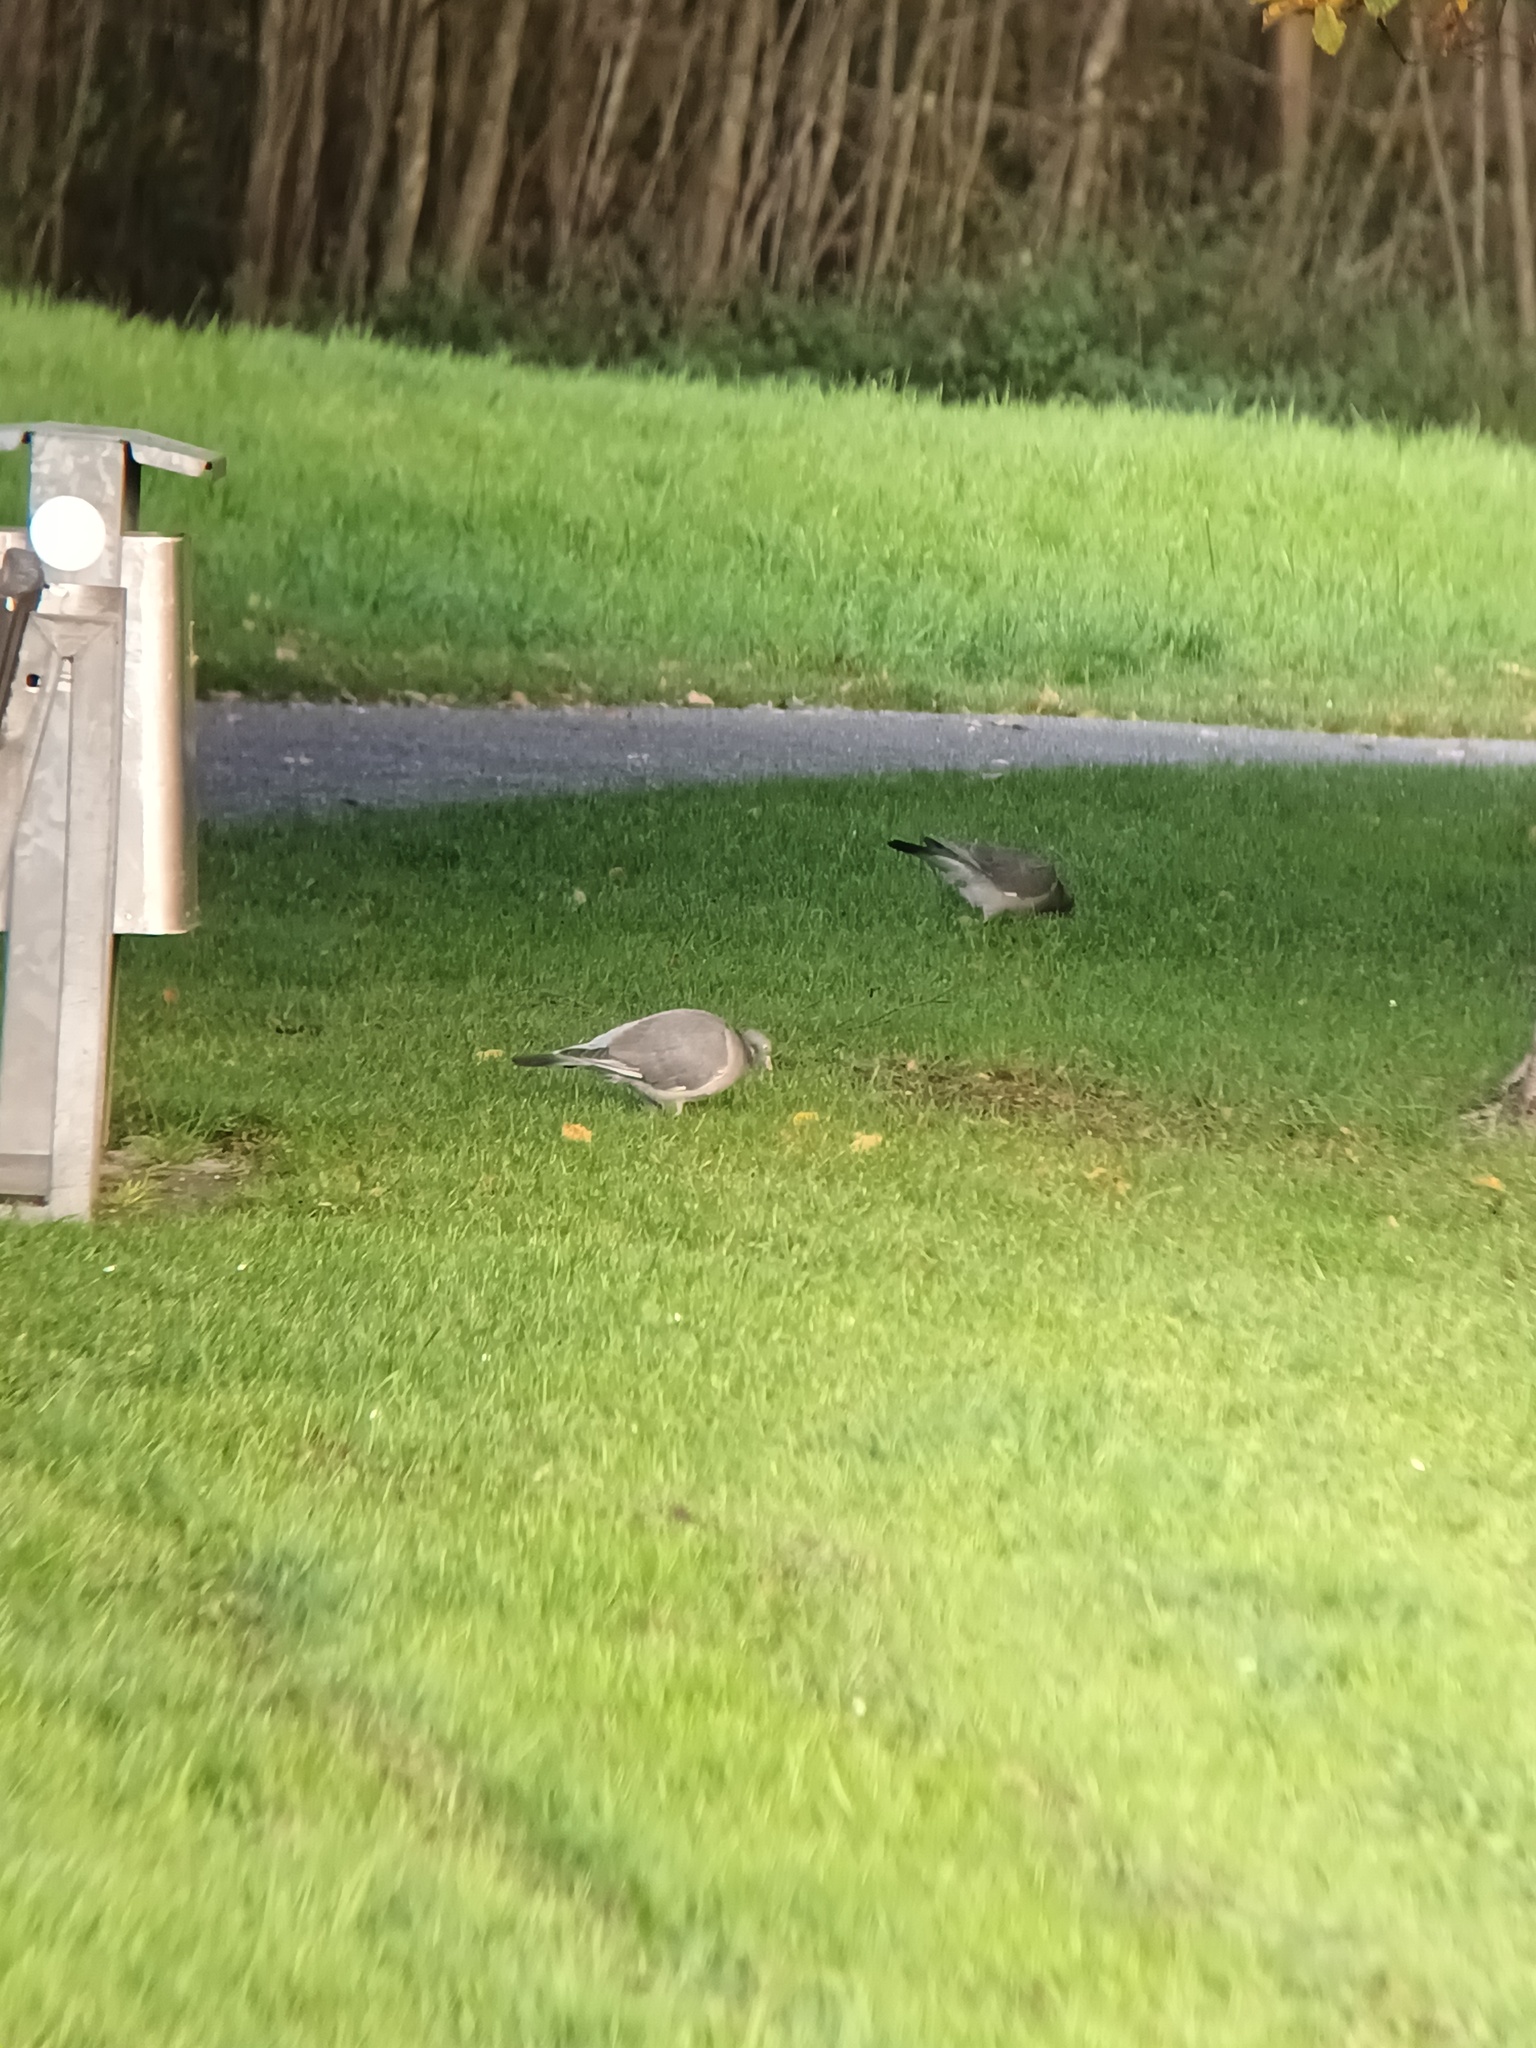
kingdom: Animalia
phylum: Chordata
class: Aves
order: Columbiformes
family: Columbidae
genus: Columba
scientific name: Columba palumbus
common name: Common wood pigeon
